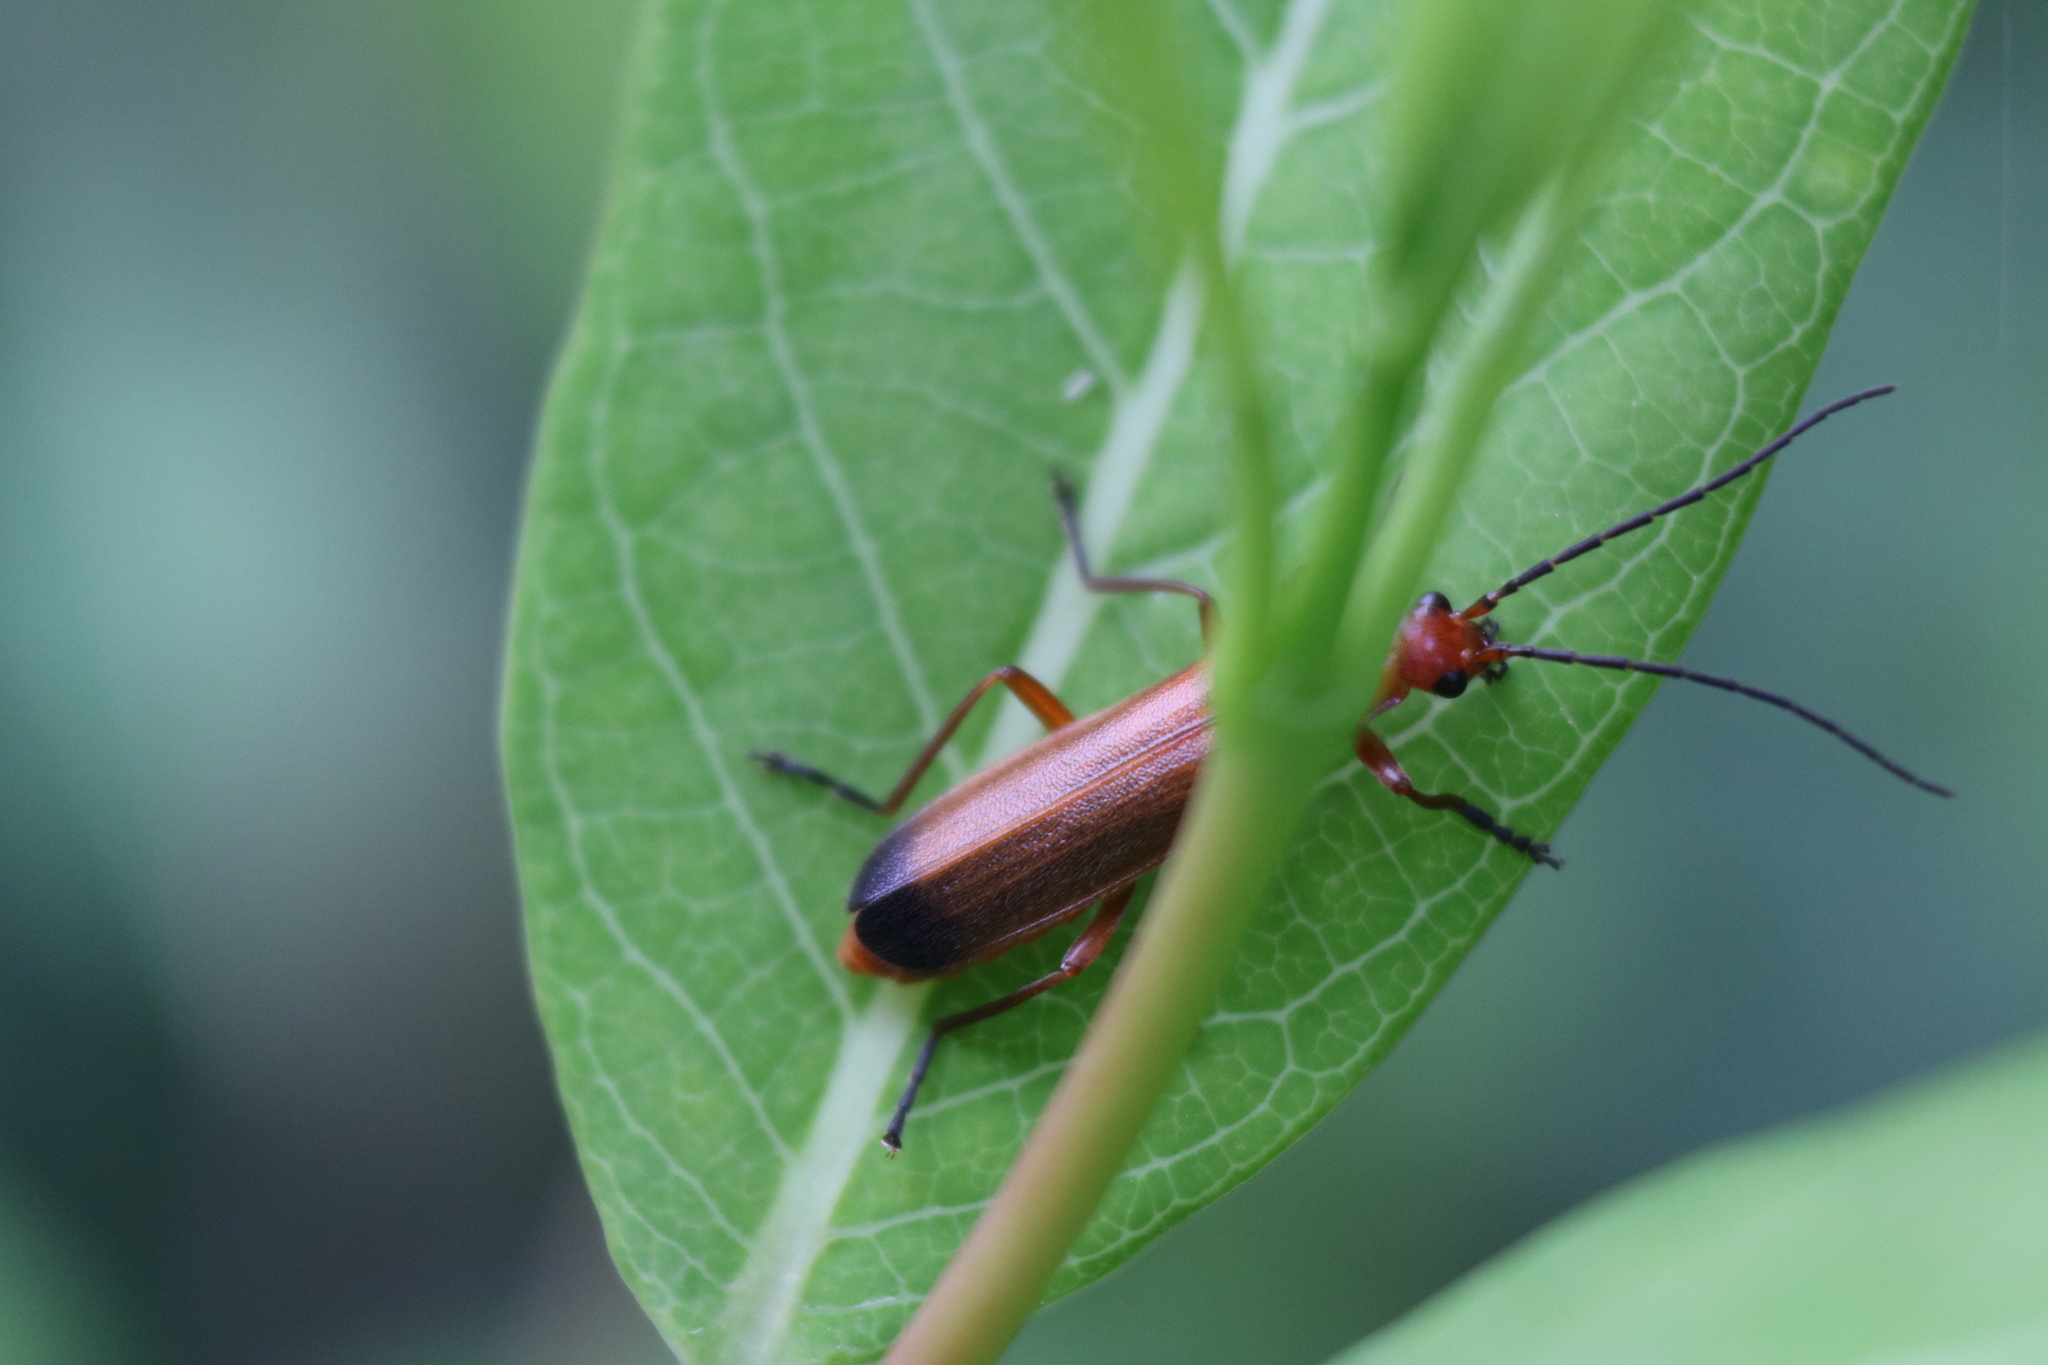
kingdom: Animalia
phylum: Arthropoda
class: Insecta
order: Coleoptera
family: Cantharidae
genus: Rhagonycha
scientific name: Rhagonycha fulva
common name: Common red soldier beetle
